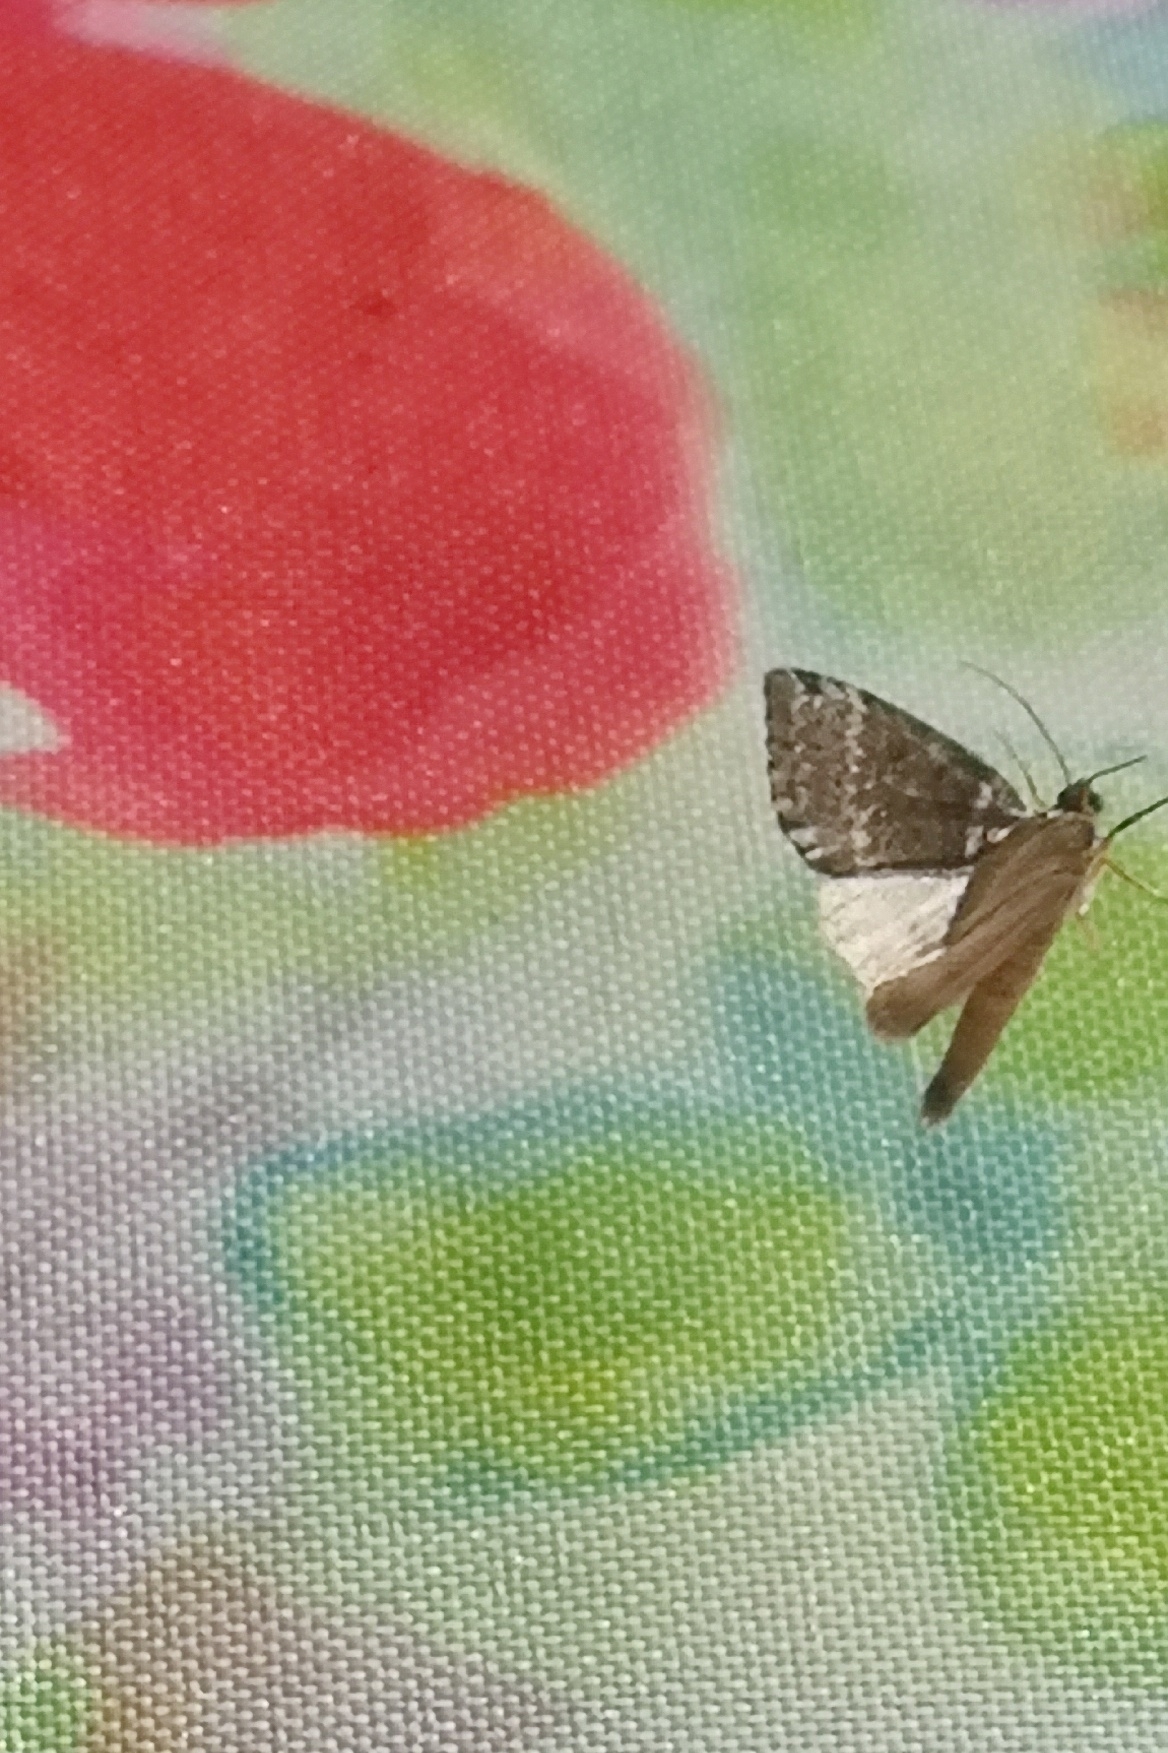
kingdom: Animalia
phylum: Arthropoda
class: Insecta
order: Lepidoptera
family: Drepanidae
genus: Tetheella
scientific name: Tetheella fluctuosa
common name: Satin lutestring
